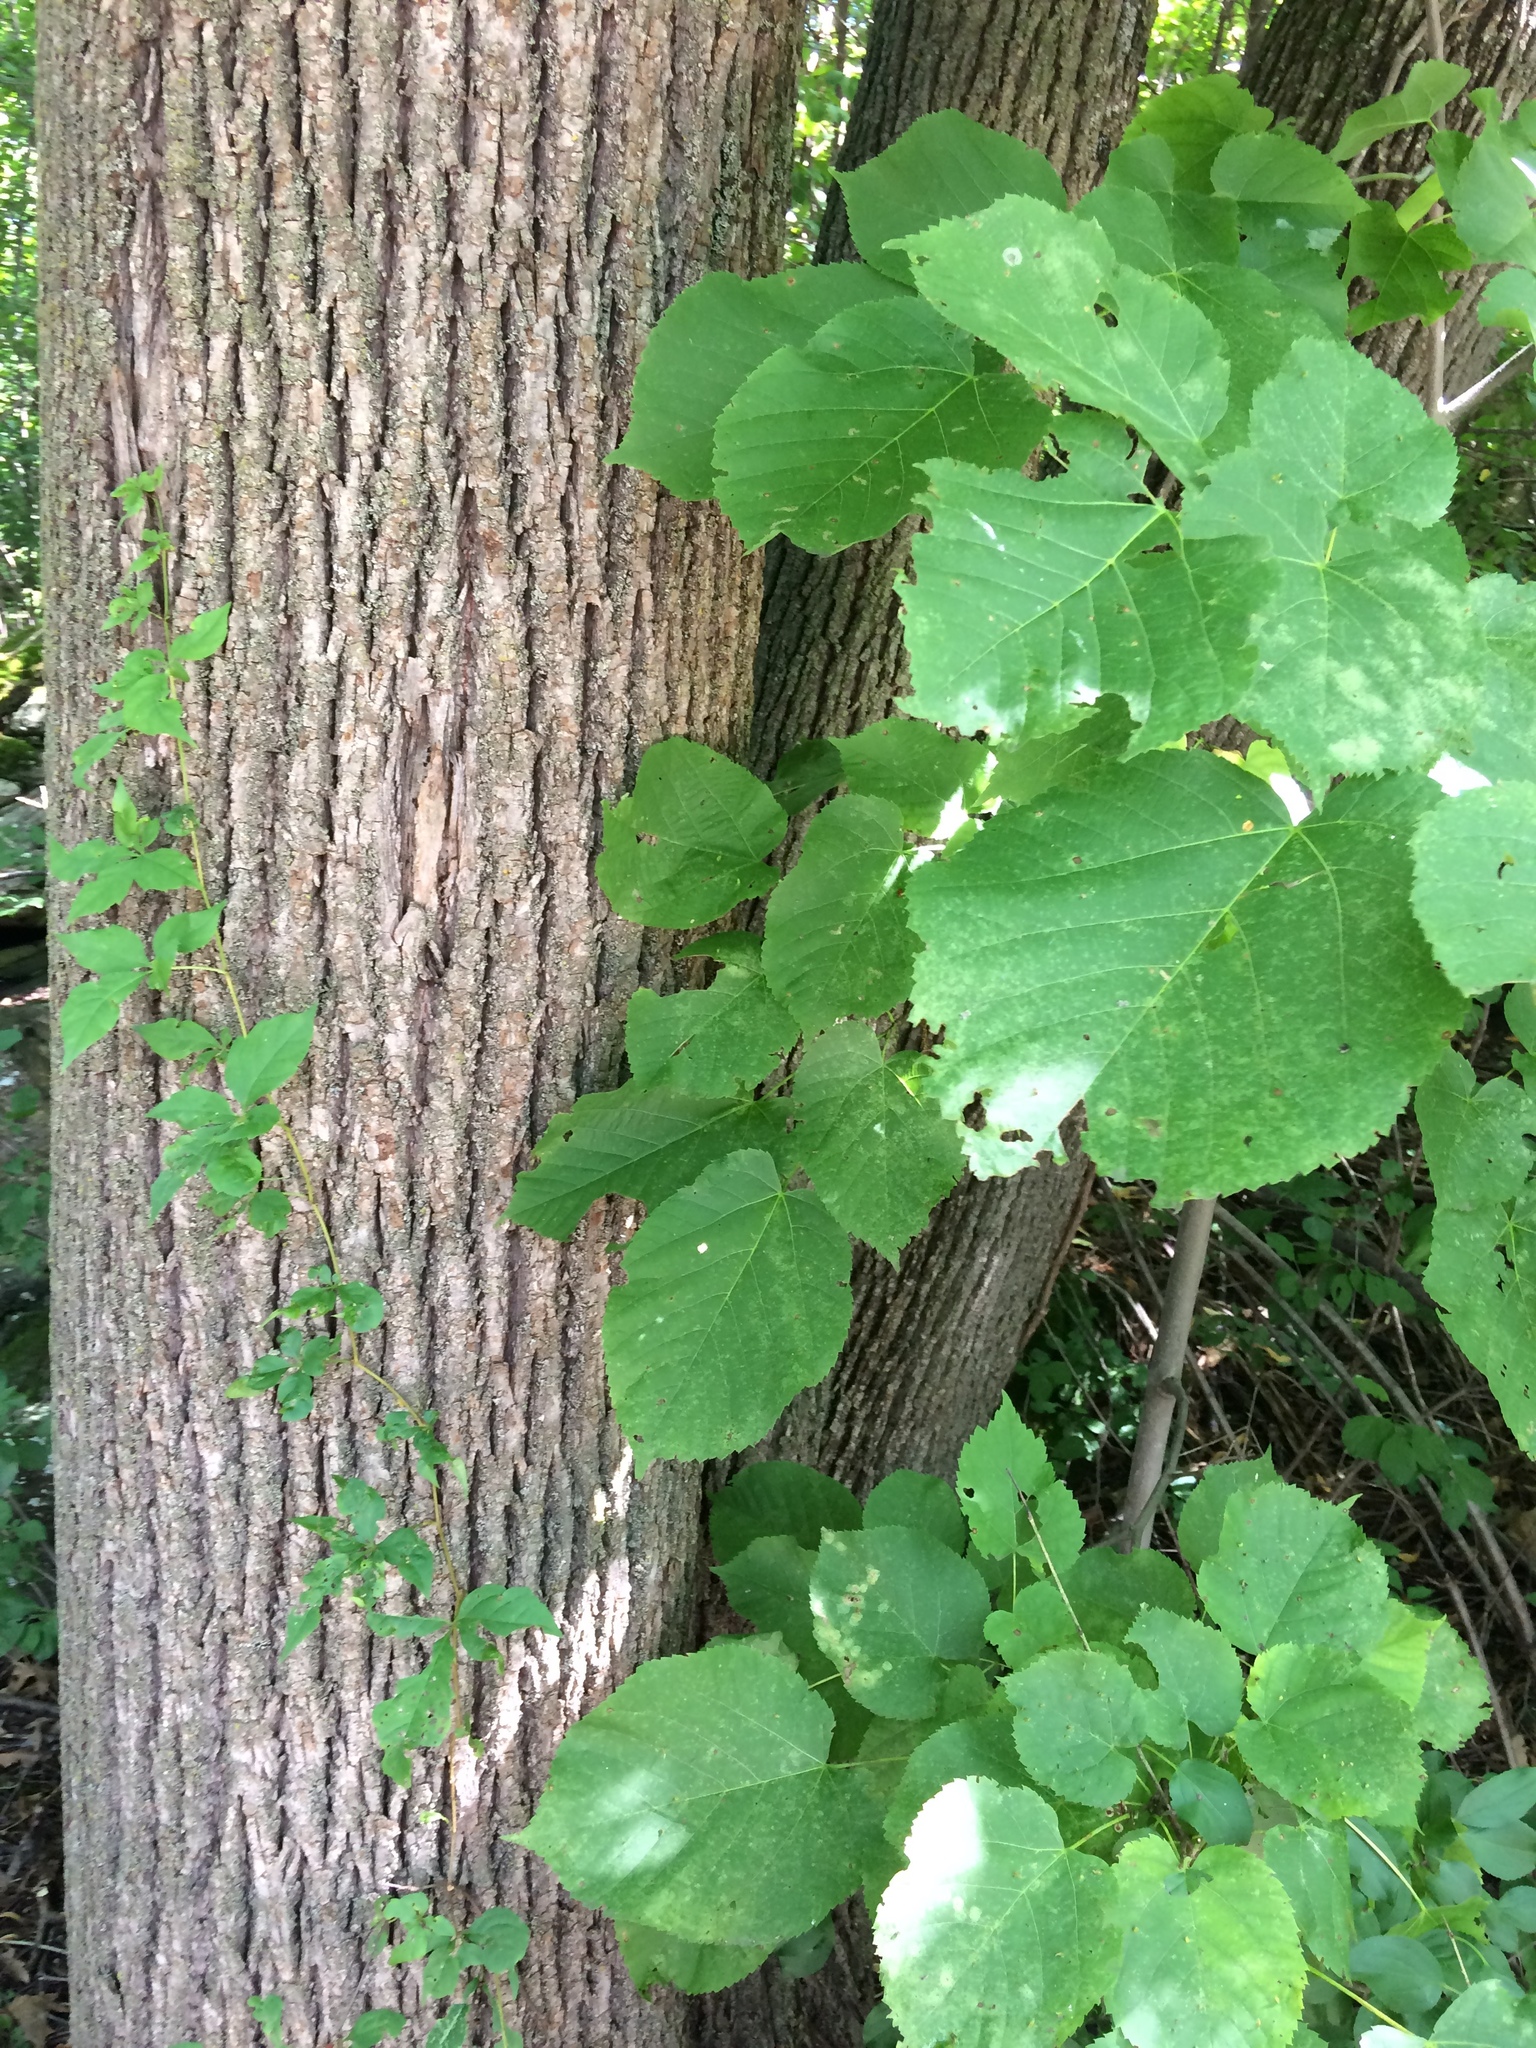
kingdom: Plantae
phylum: Tracheophyta
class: Magnoliopsida
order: Malvales
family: Malvaceae
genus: Tilia
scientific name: Tilia americana
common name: Basswood
